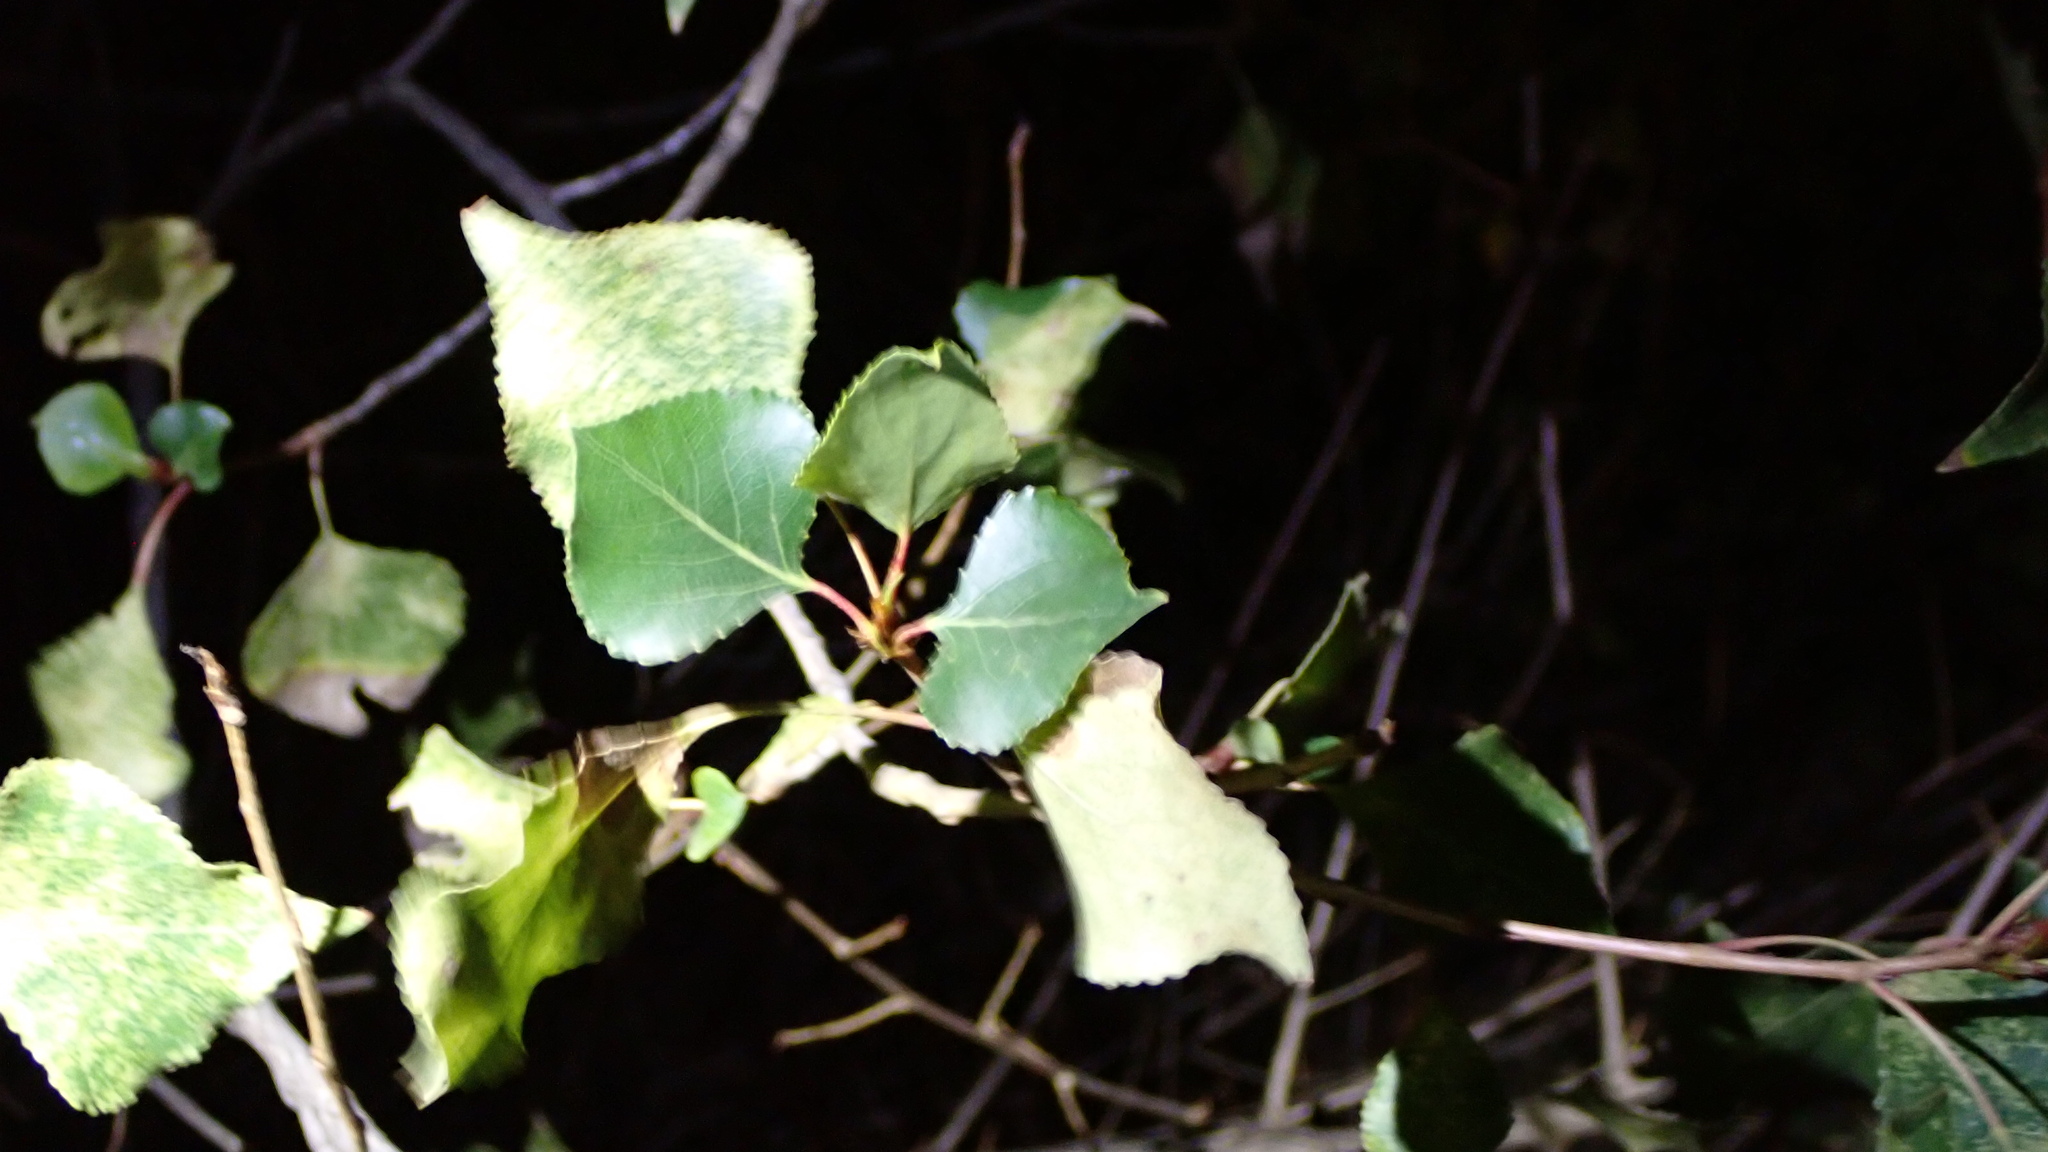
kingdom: Plantae
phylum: Tracheophyta
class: Magnoliopsida
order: Malpighiales
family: Salicaceae
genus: Populus
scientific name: Populus nigra
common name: Black poplar
